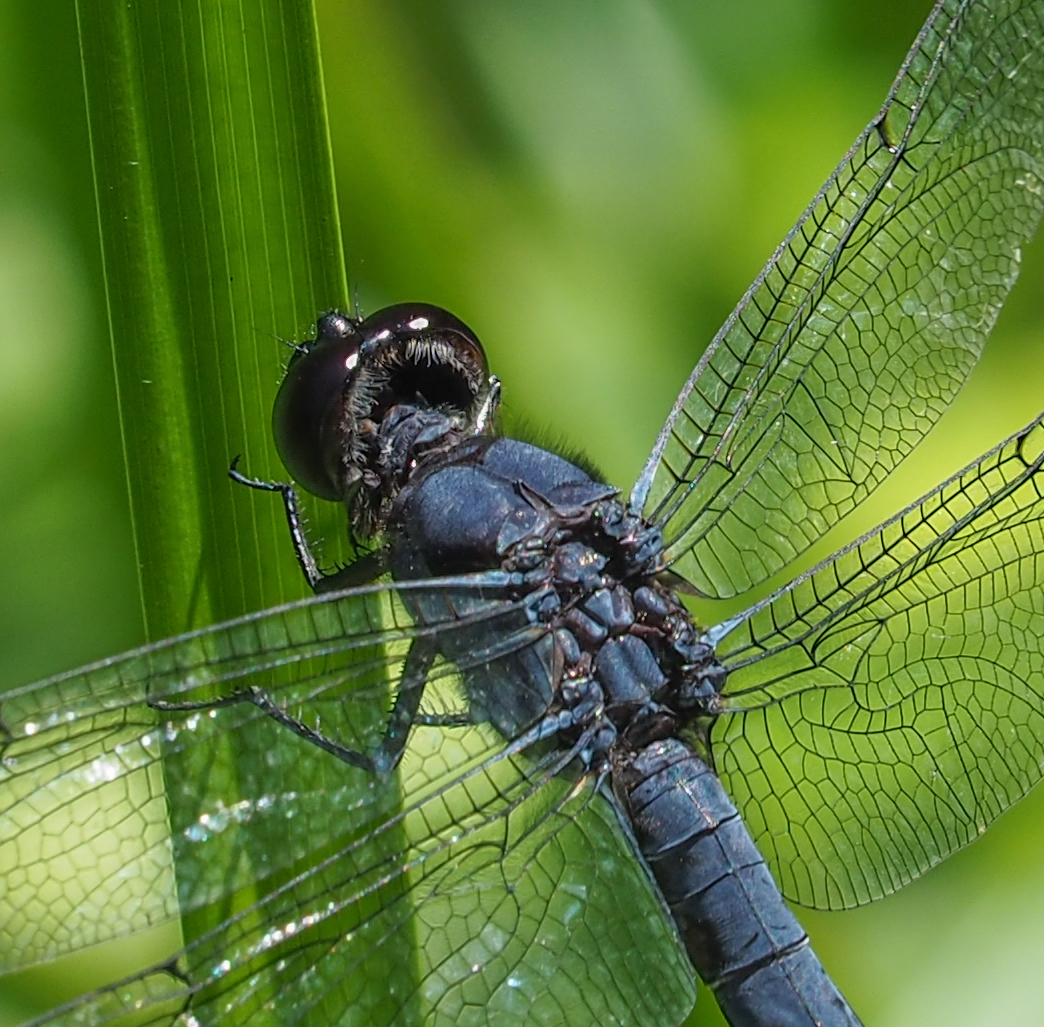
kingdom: Animalia
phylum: Arthropoda
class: Insecta
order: Odonata
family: Libellulidae
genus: Libellula
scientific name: Libellula incesta
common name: Slaty skimmer
